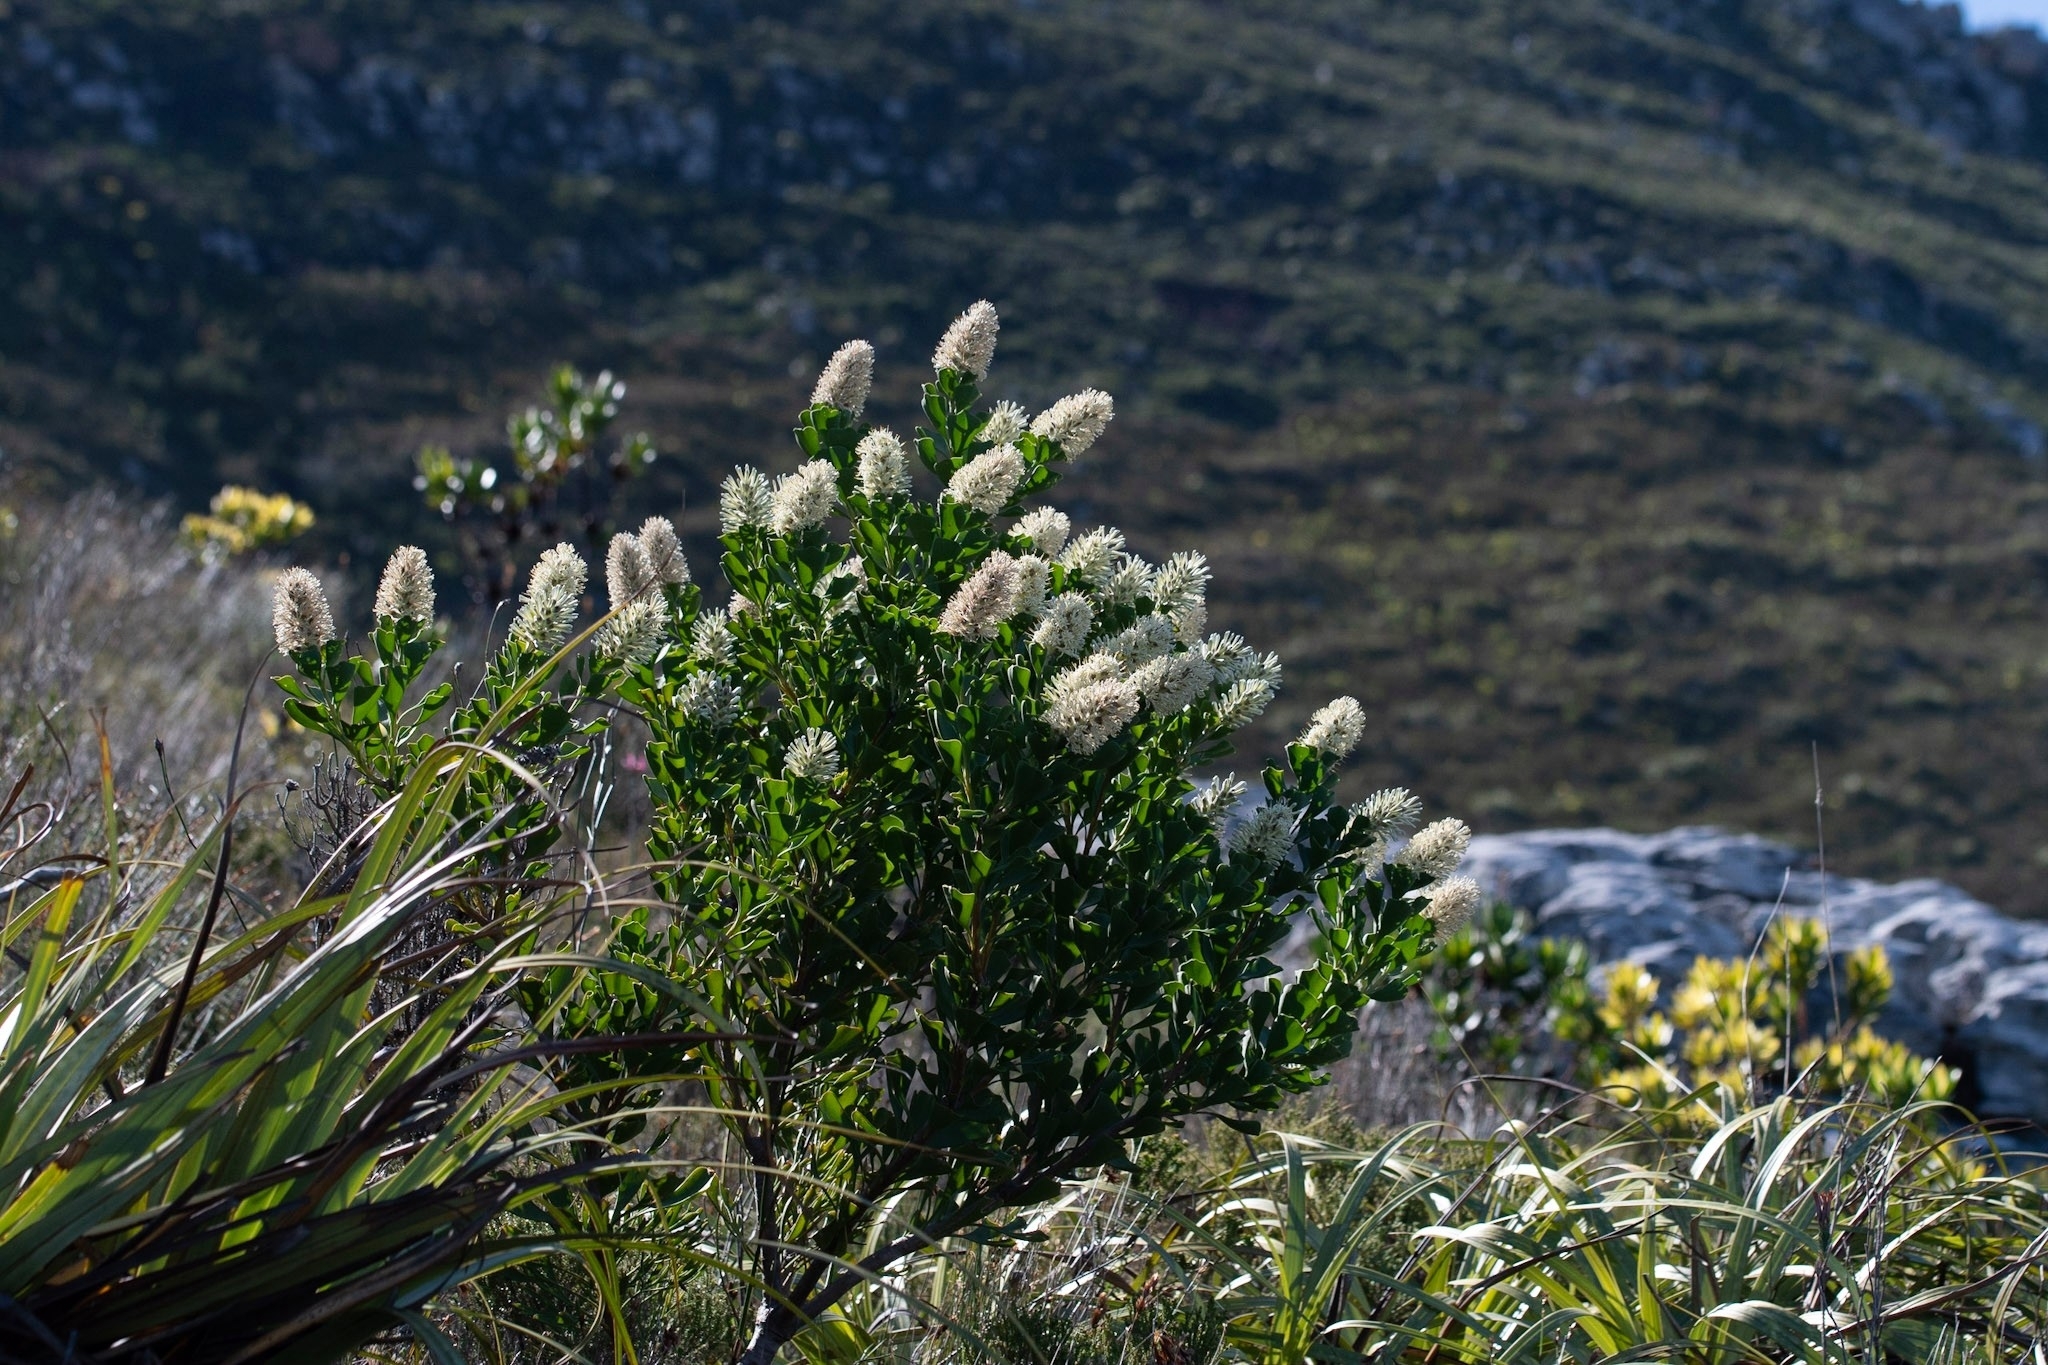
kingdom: Plantae
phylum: Tracheophyta
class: Magnoliopsida
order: Proteales
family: Proteaceae
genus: Paranomus
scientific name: Paranomus sceptrum-gustavianus
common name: King gustav's sceptre
